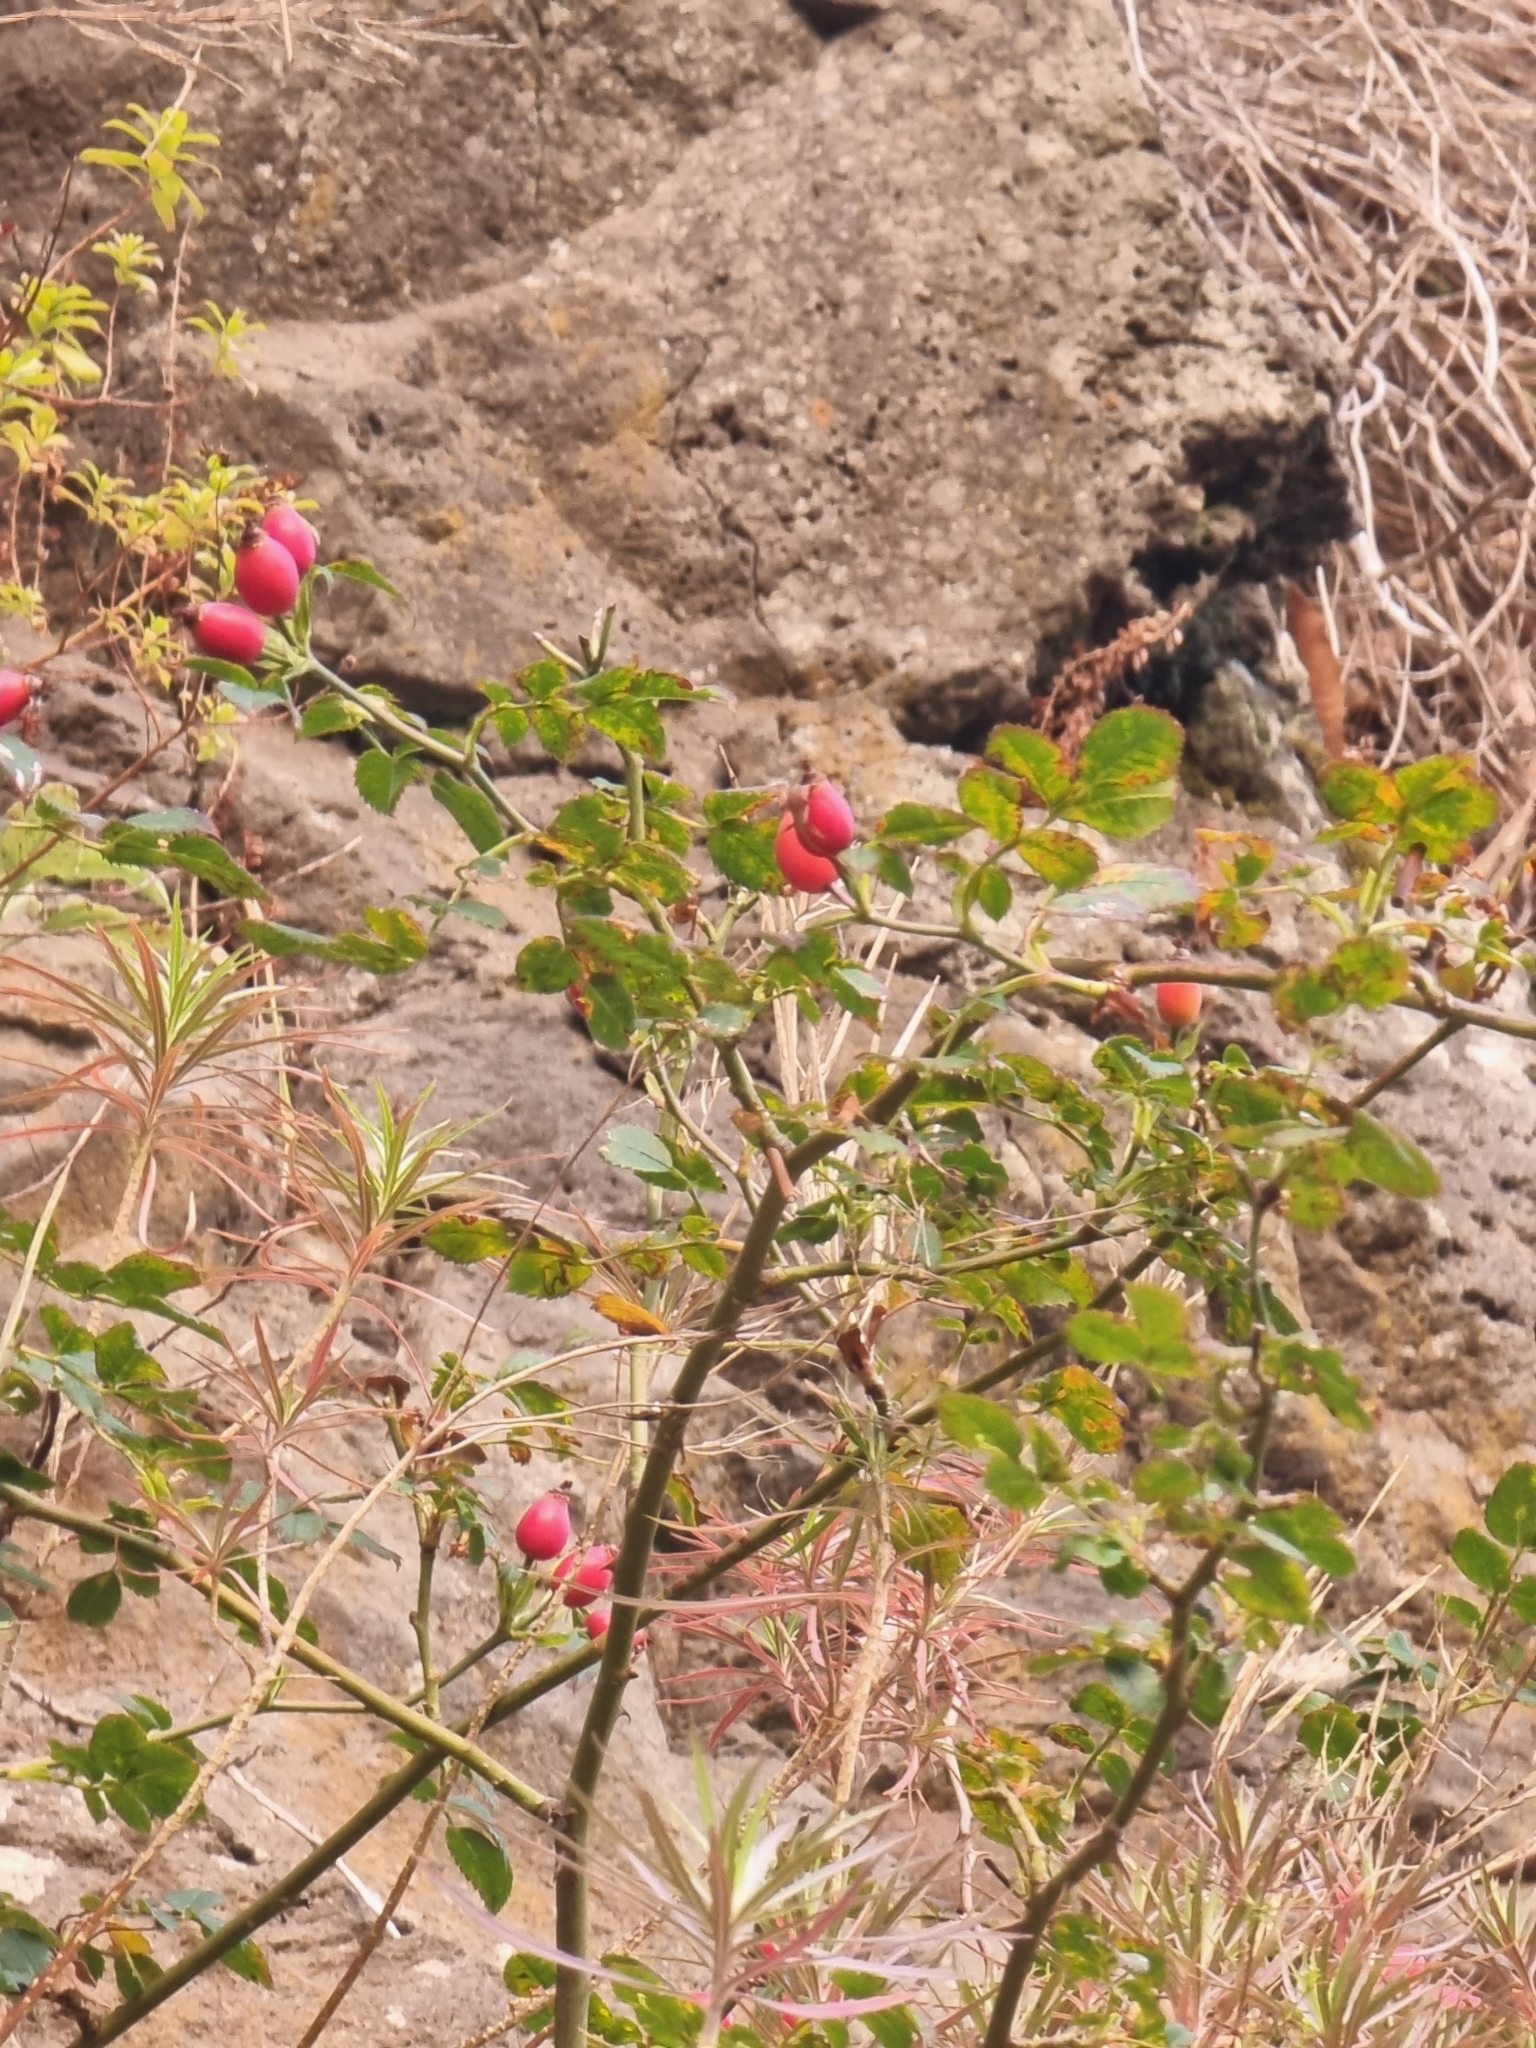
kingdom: Plantae
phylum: Tracheophyta
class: Magnoliopsida
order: Rosales
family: Rosaceae
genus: Rosa
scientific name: Rosa canina
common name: Dog rose
